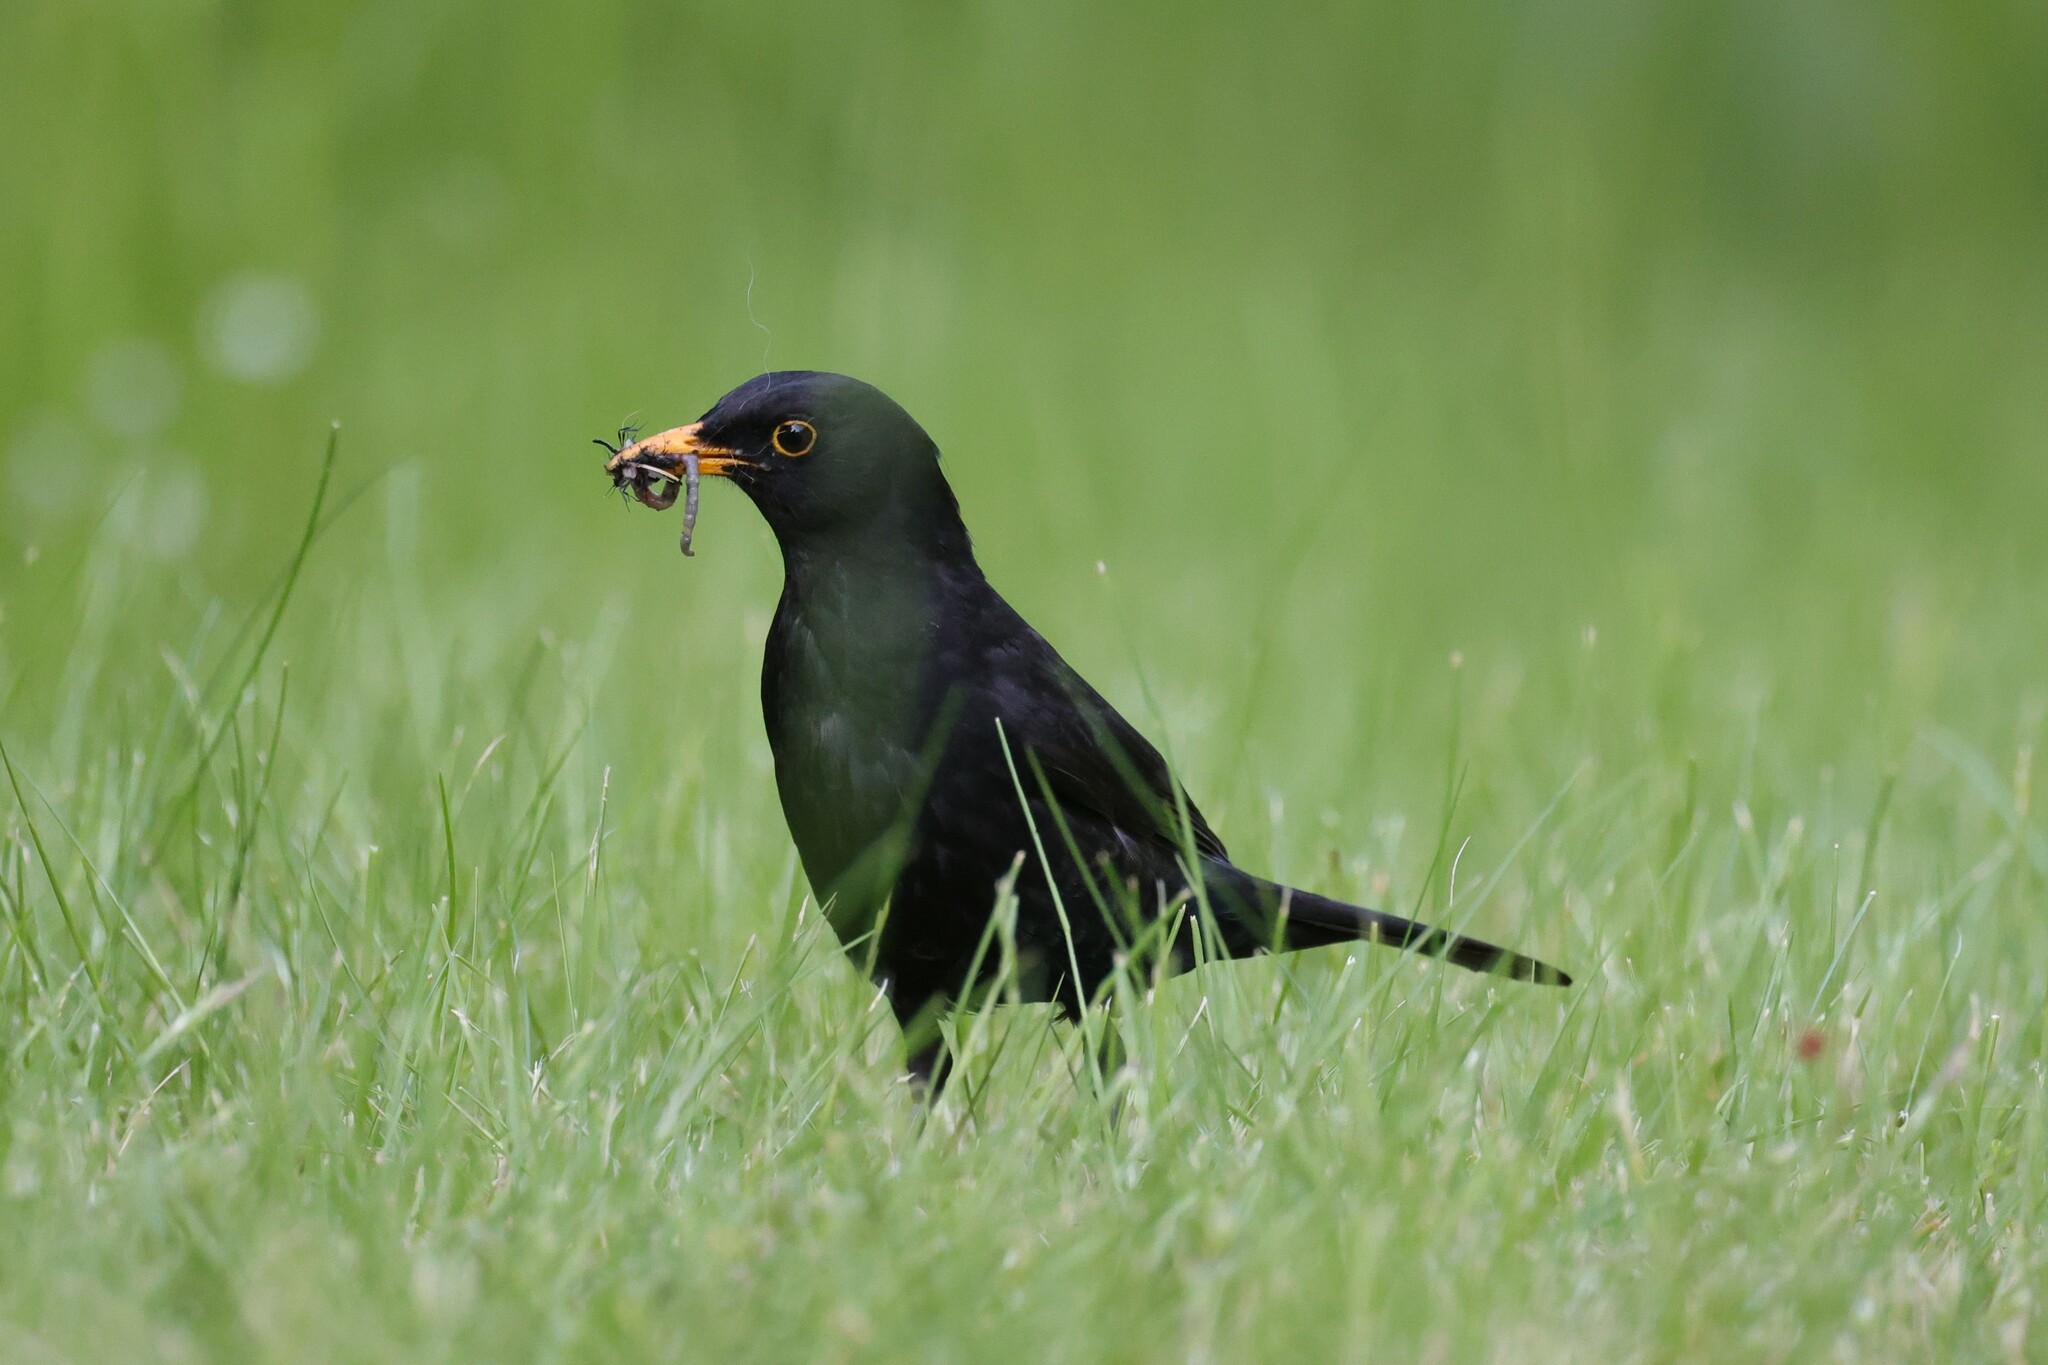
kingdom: Animalia
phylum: Chordata
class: Aves
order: Passeriformes
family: Turdidae
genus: Turdus
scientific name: Turdus merula
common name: Common blackbird
